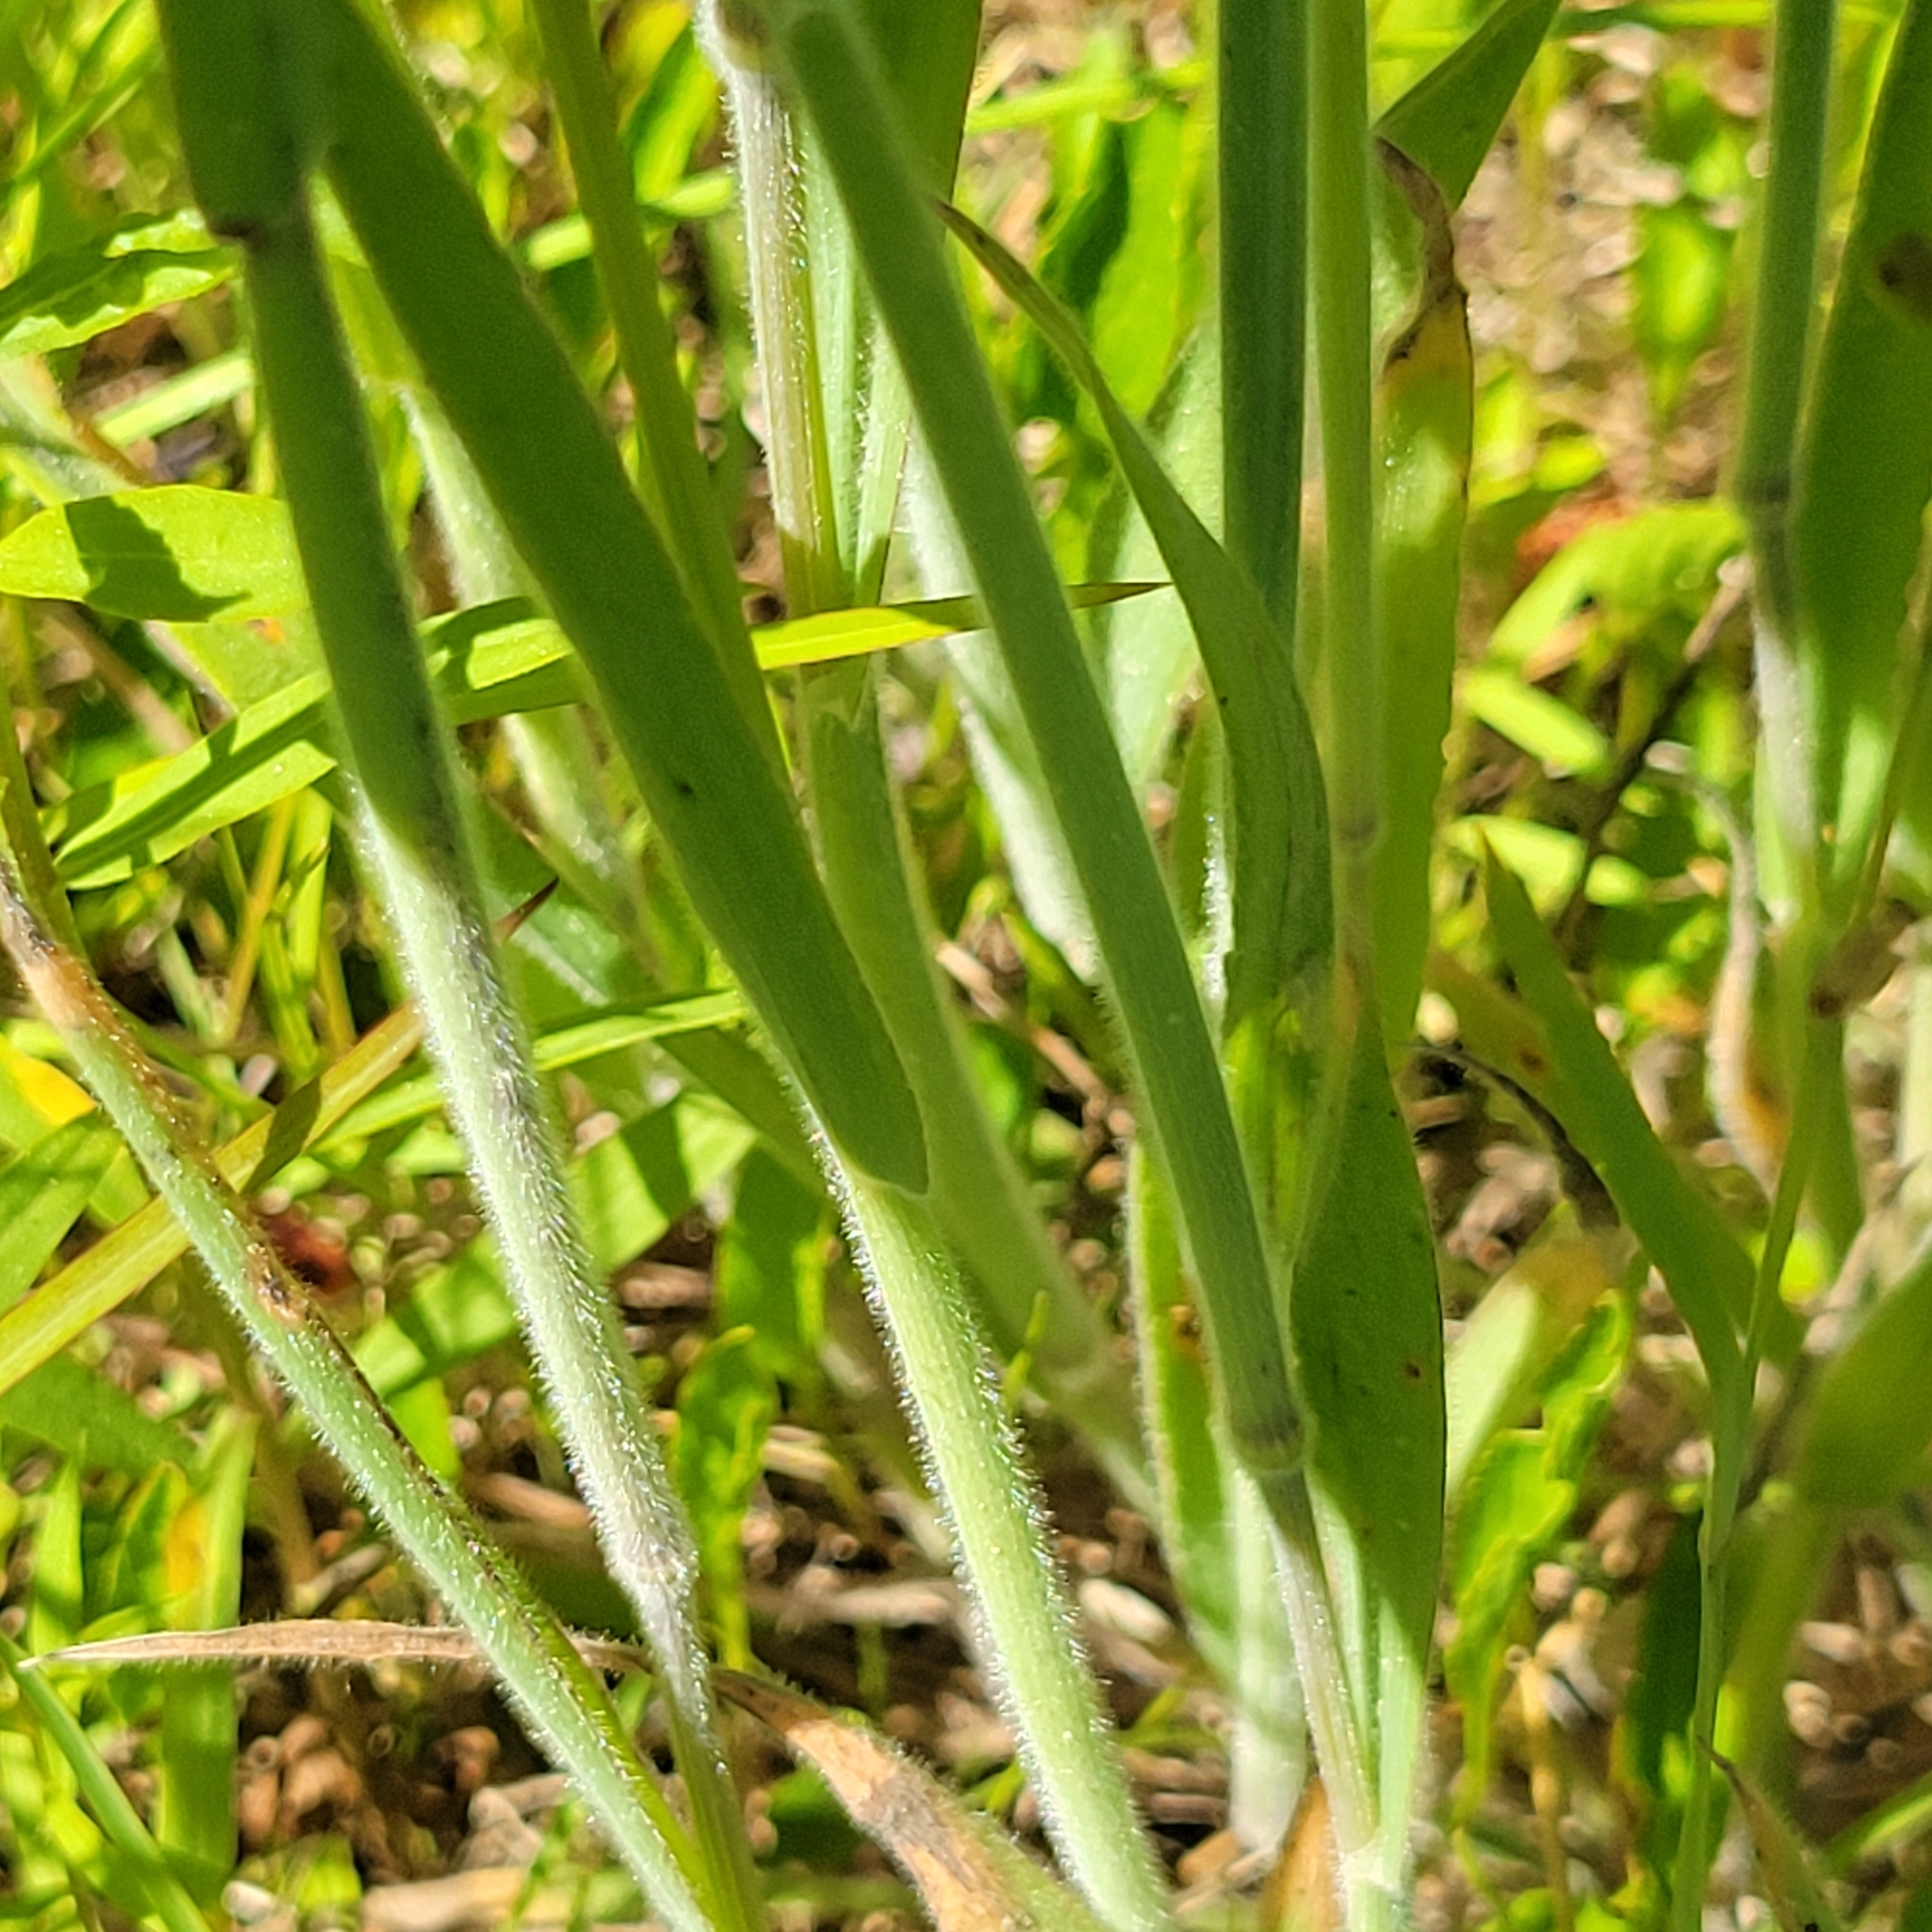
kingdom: Plantae
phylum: Tracheophyta
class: Liliopsida
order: Poales
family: Poaceae
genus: Holcus
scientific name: Holcus lanatus
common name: Yorkshire-fog
